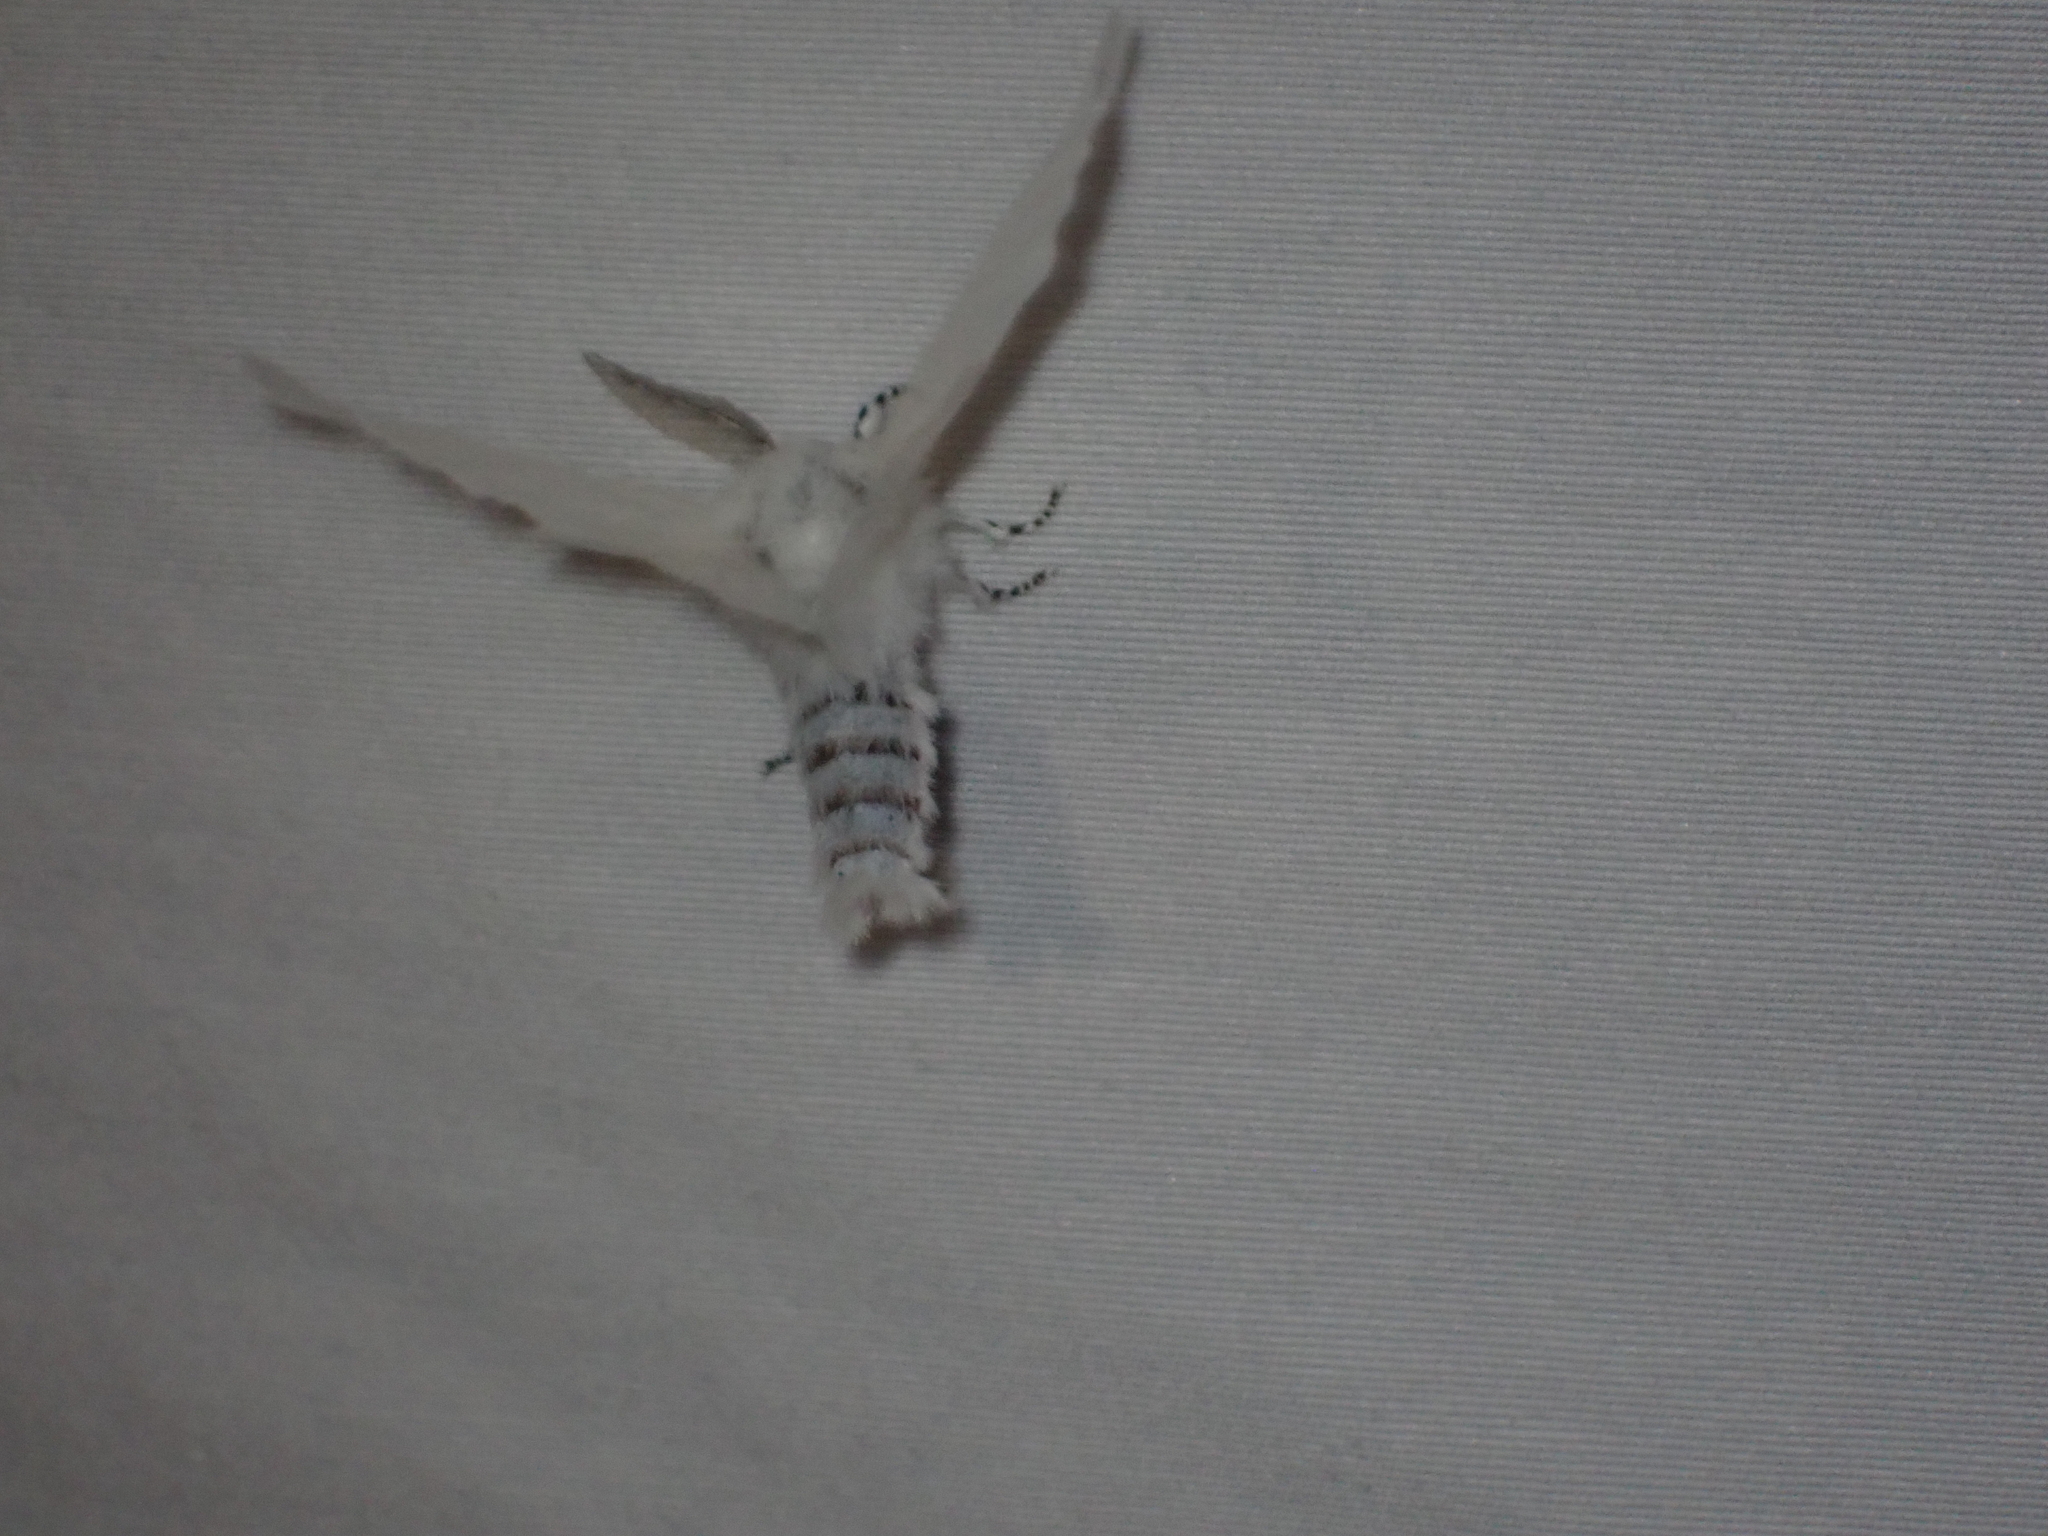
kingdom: Animalia
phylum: Arthropoda
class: Insecta
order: Lepidoptera
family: Erebidae
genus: Leucoma
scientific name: Leucoma salicis
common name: White satin moth
